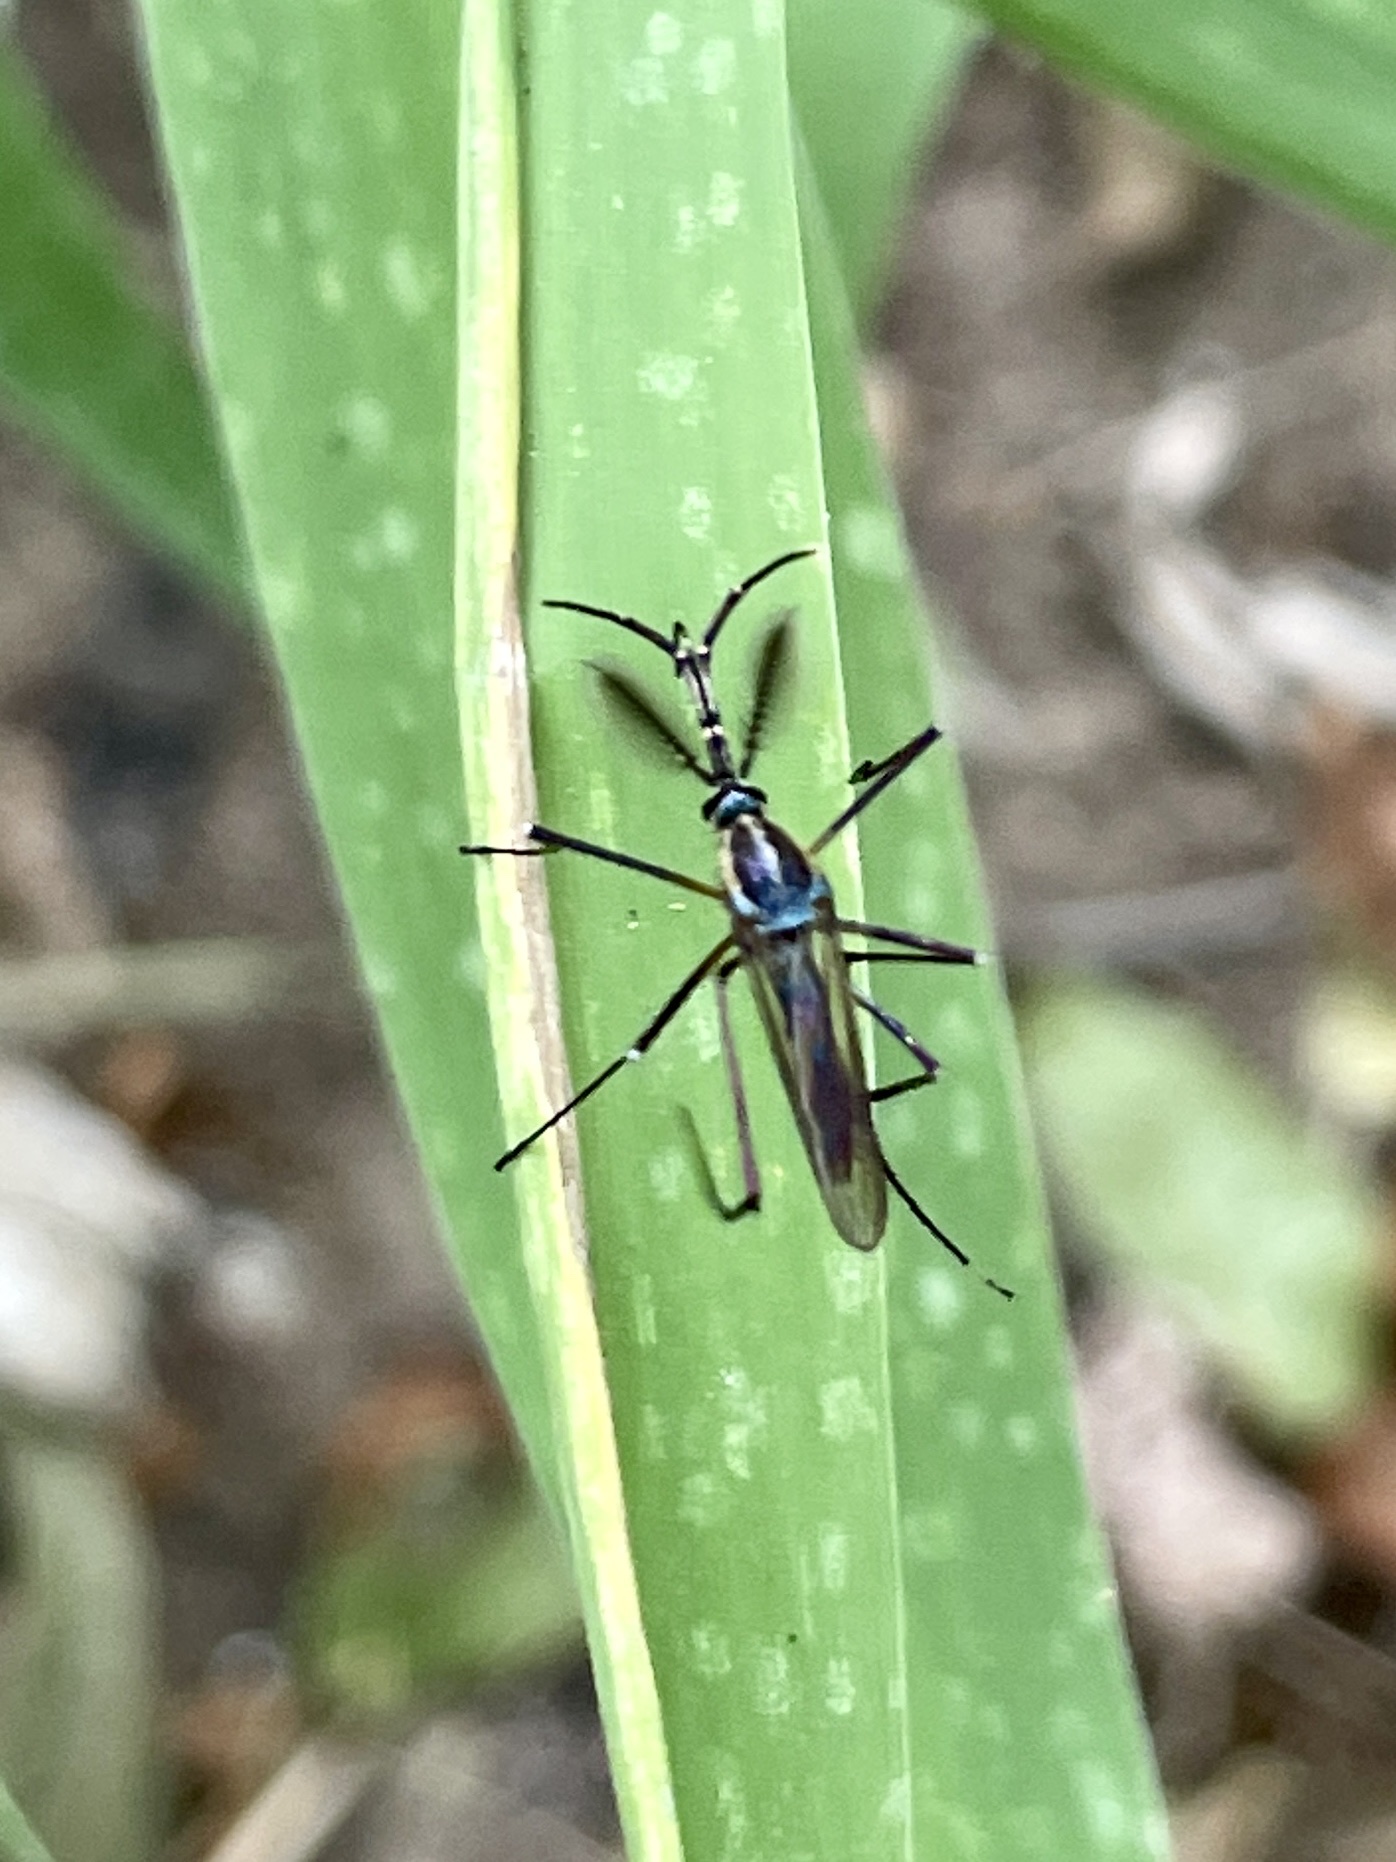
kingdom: Animalia
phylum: Arthropoda
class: Insecta
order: Diptera
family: Culicidae
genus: Toxorhynchites
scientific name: Toxorhynchites rutilus
